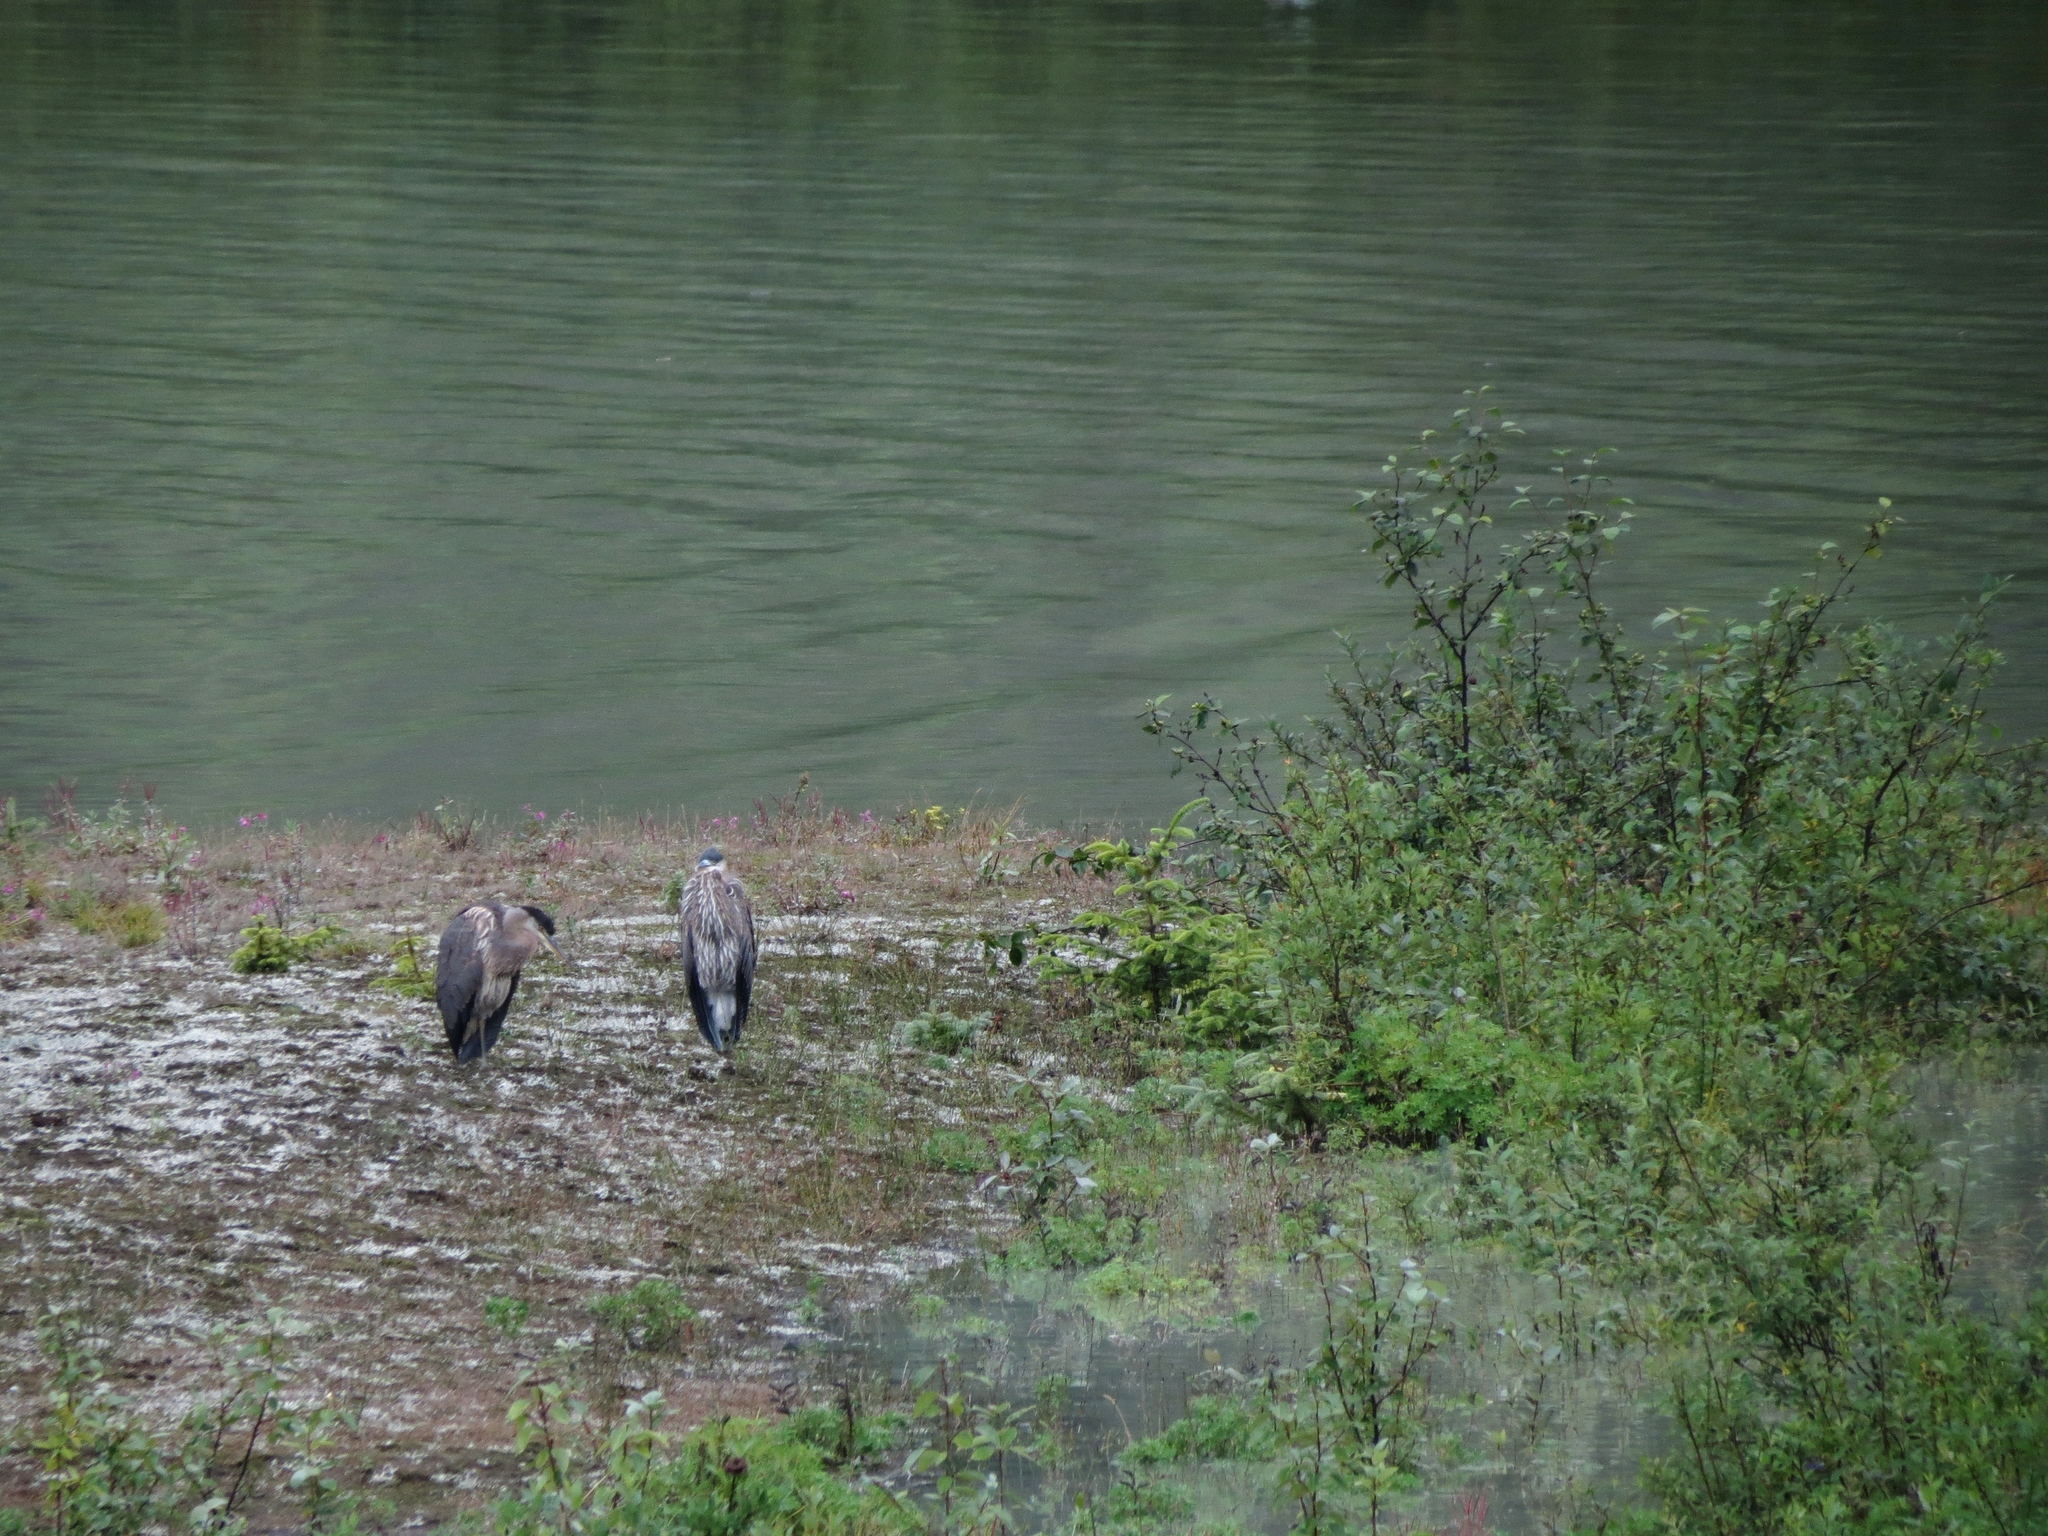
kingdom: Animalia
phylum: Chordata
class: Aves
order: Pelecaniformes
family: Ardeidae
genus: Ardea
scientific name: Ardea herodias
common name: Great blue heron
